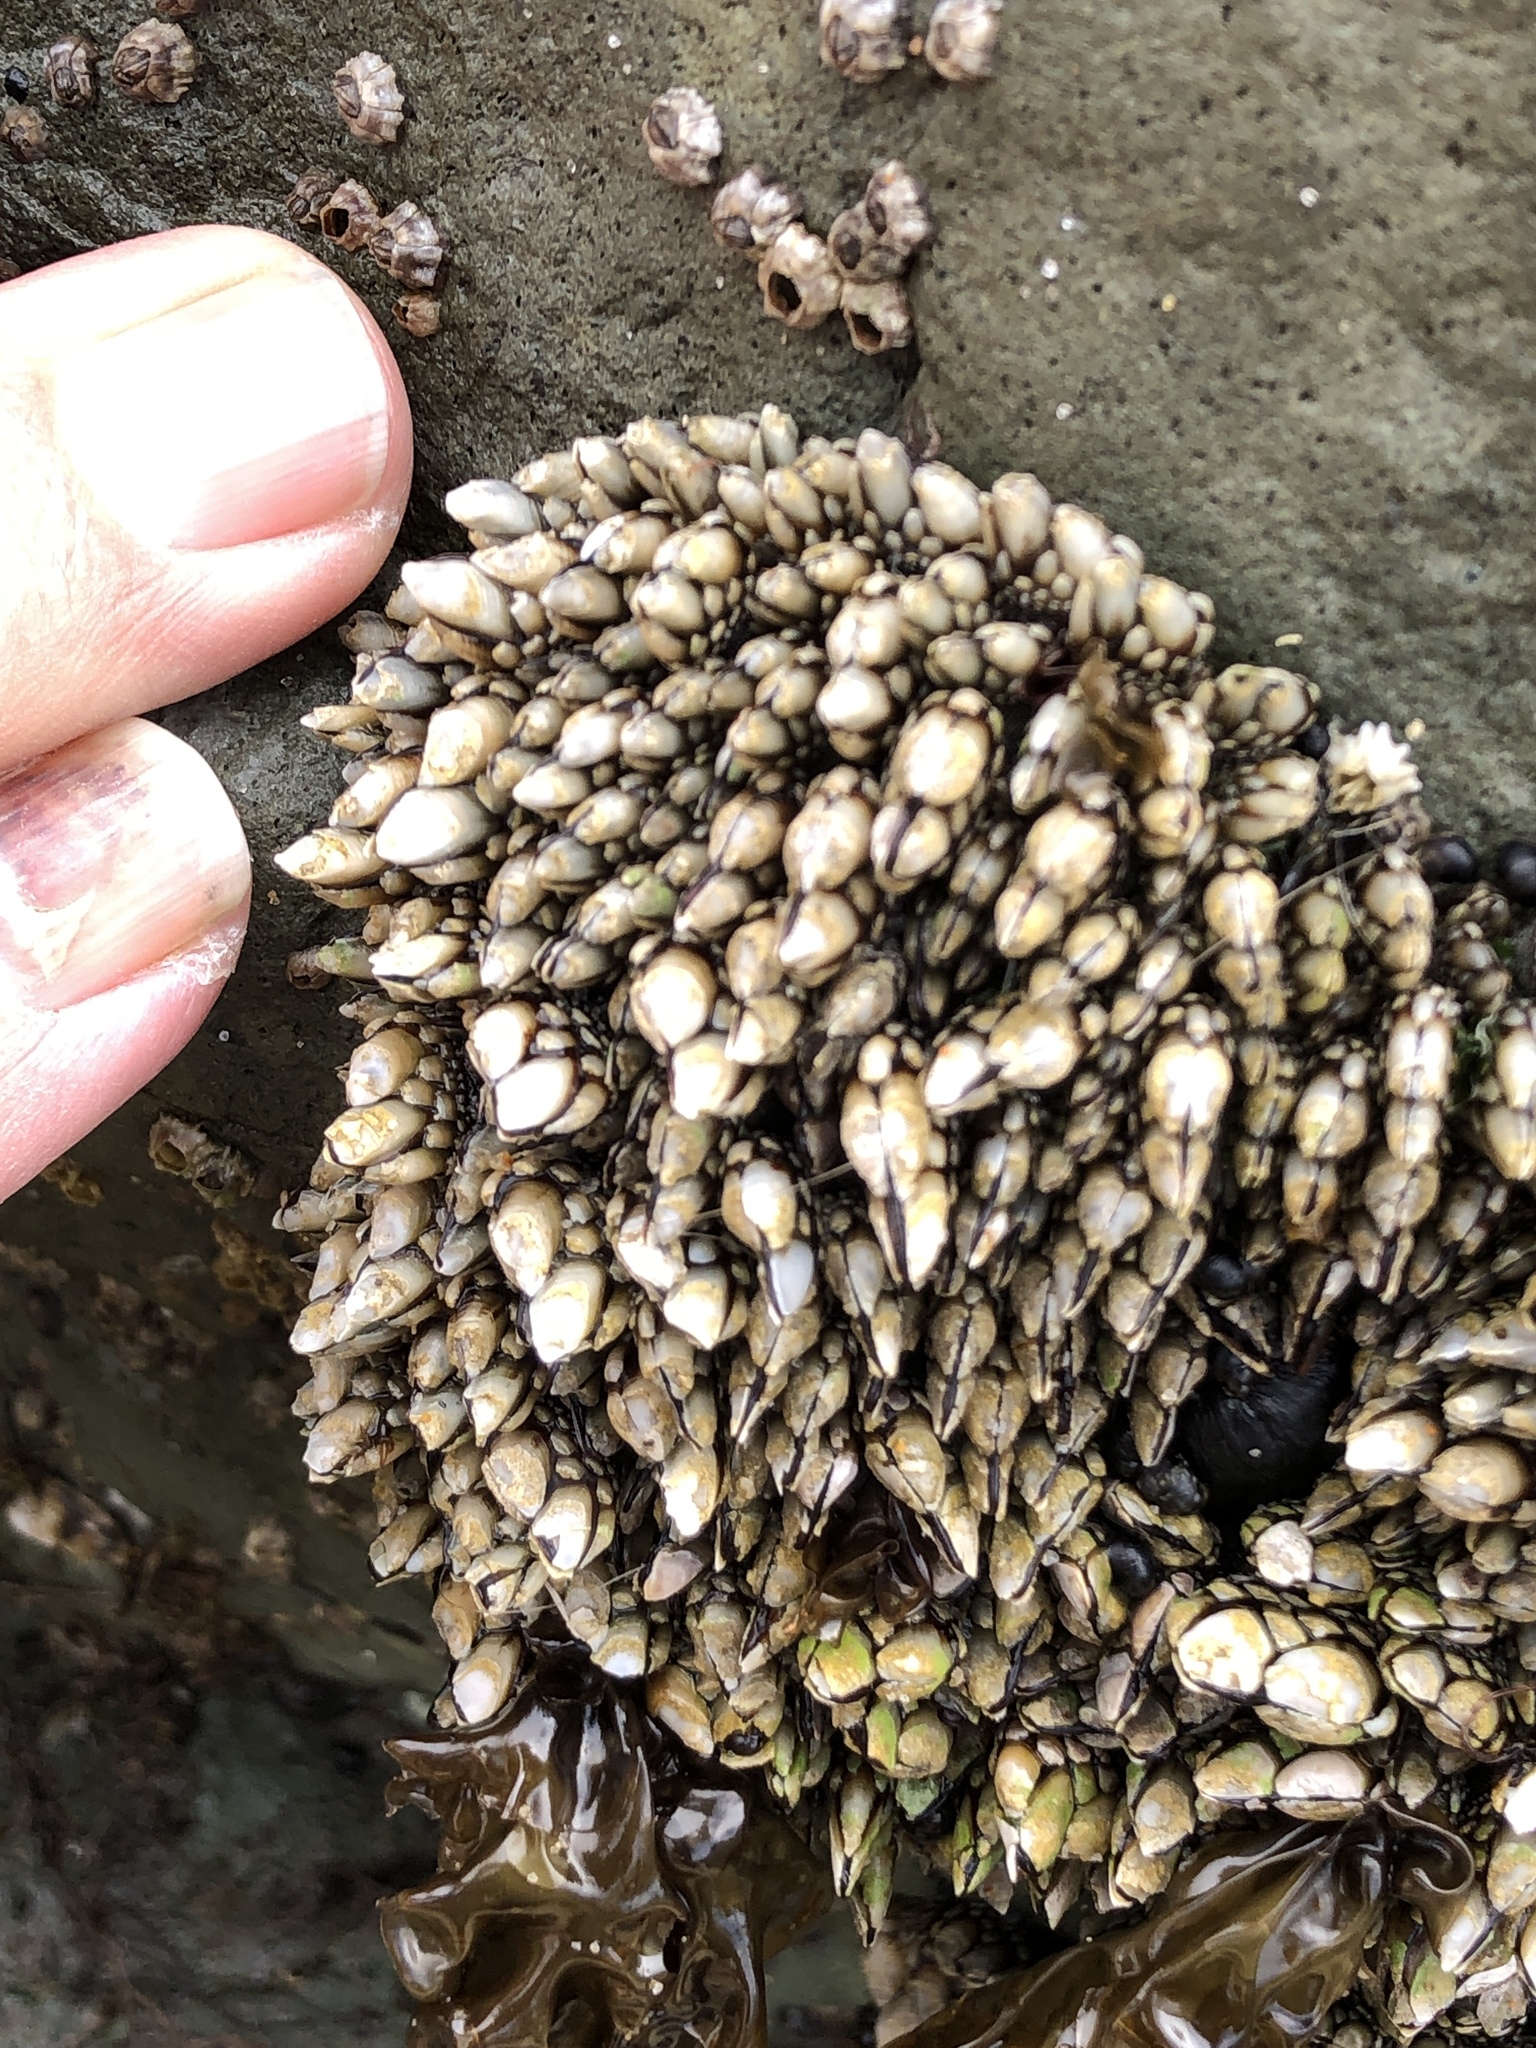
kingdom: Animalia
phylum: Arthropoda
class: Maxillopoda
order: Pedunculata
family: Pollicipedidae
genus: Pollicipes
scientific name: Pollicipes polymerus
